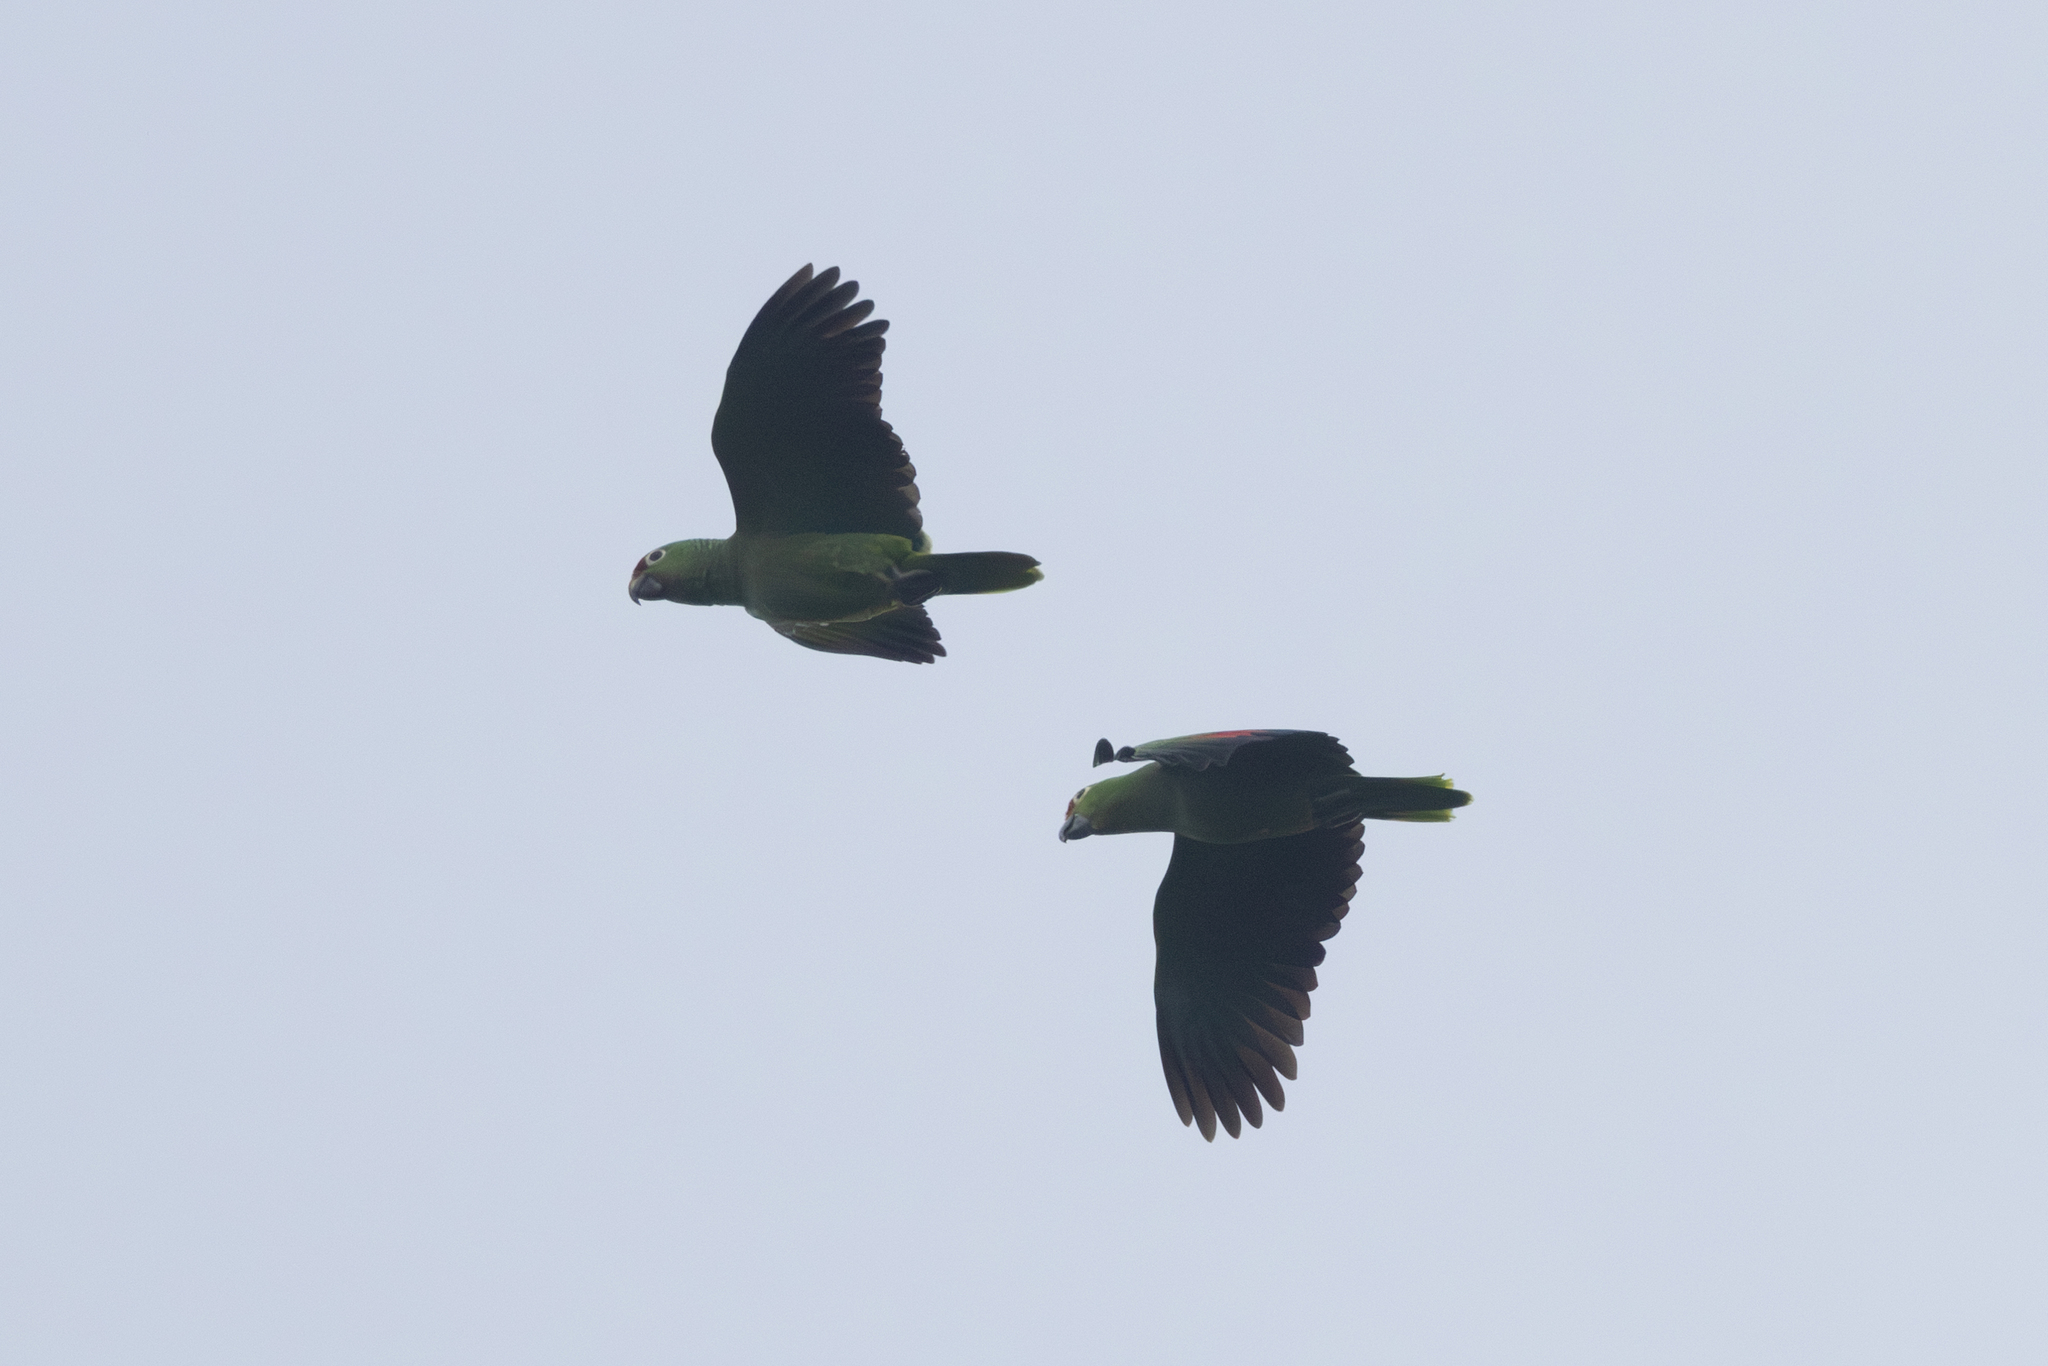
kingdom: Animalia
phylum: Chordata
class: Aves
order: Psittaciformes
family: Psittacidae
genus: Amazona
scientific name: Amazona autumnalis
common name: Red-lored amazon
